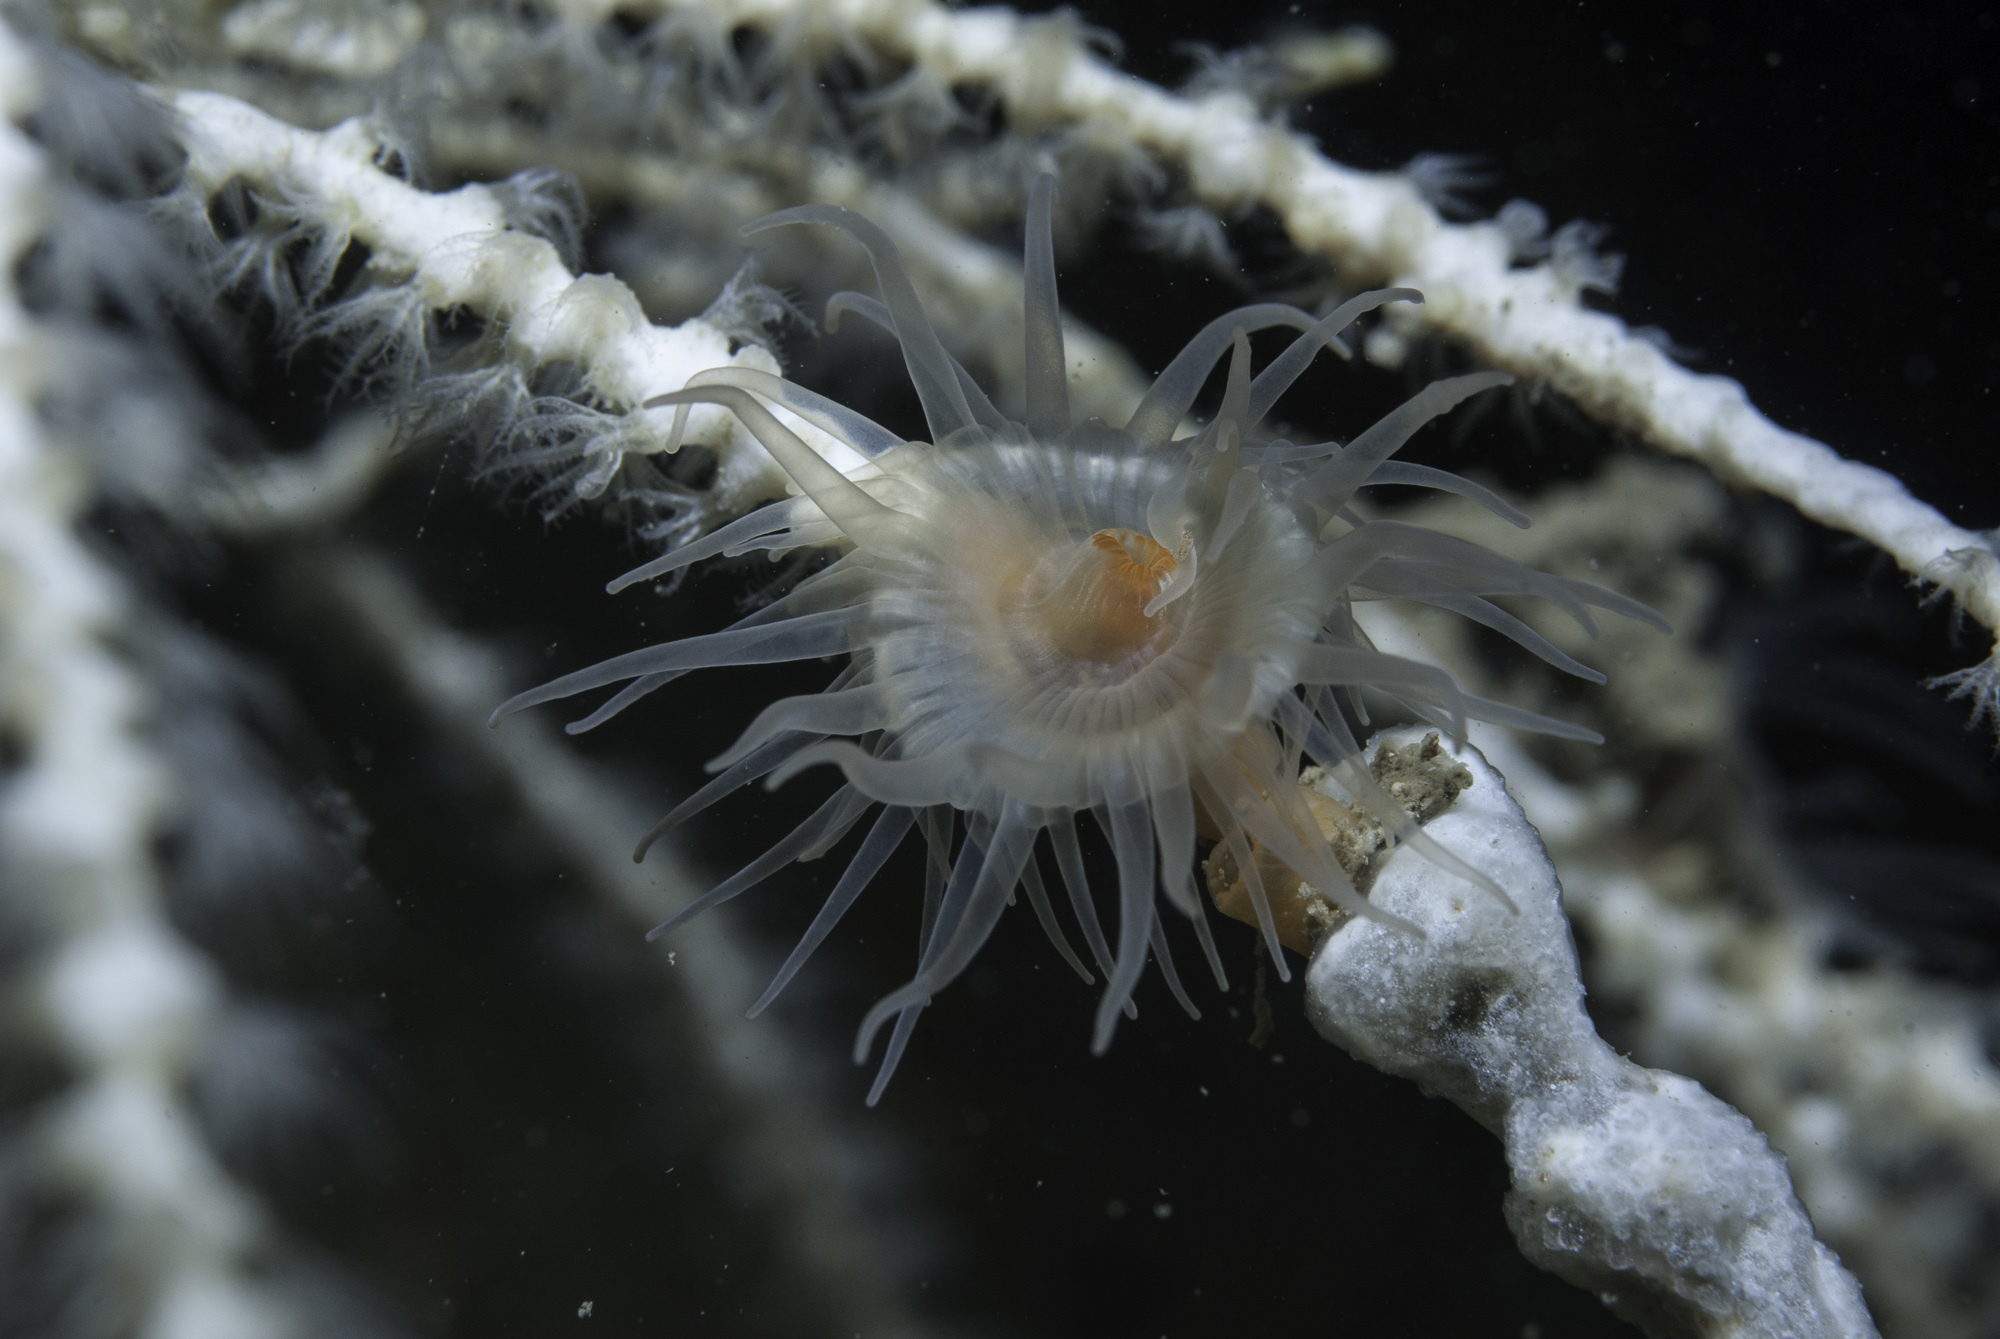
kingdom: Animalia
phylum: Cnidaria
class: Anthozoa
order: Actiniaria
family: Amphianthidae
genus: Amphianthus
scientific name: Amphianthus dohrnii
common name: Sea-fan anemone
